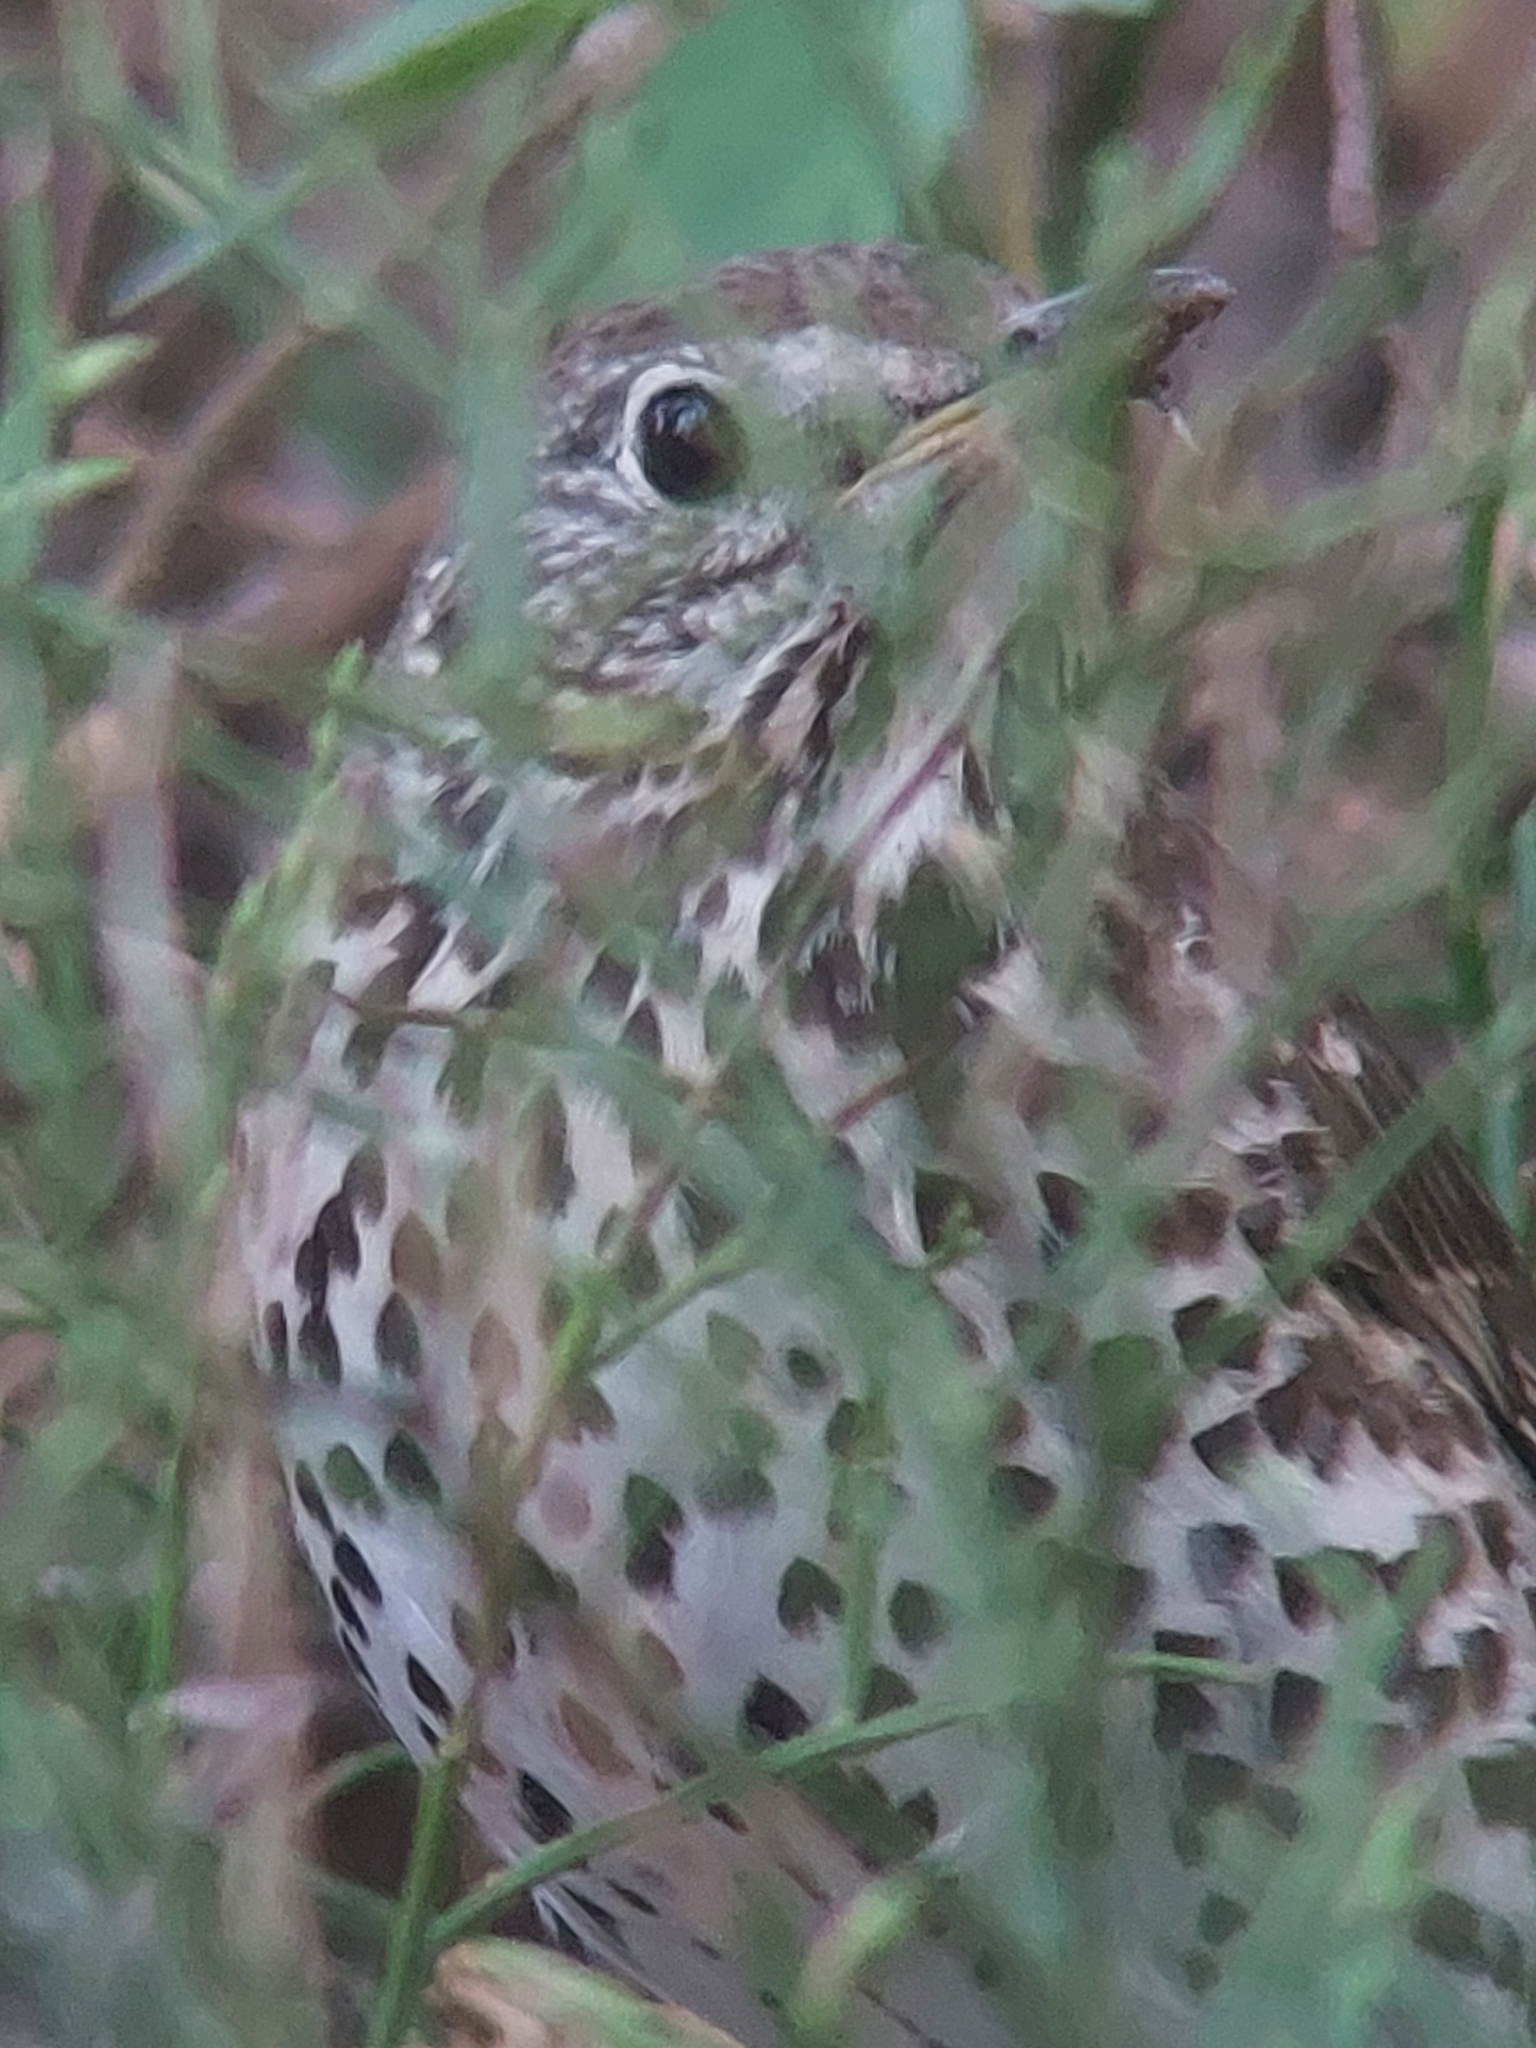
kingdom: Animalia
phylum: Chordata
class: Aves
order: Passeriformes
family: Turdidae
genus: Turdus
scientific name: Turdus philomelos
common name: Song thrush
